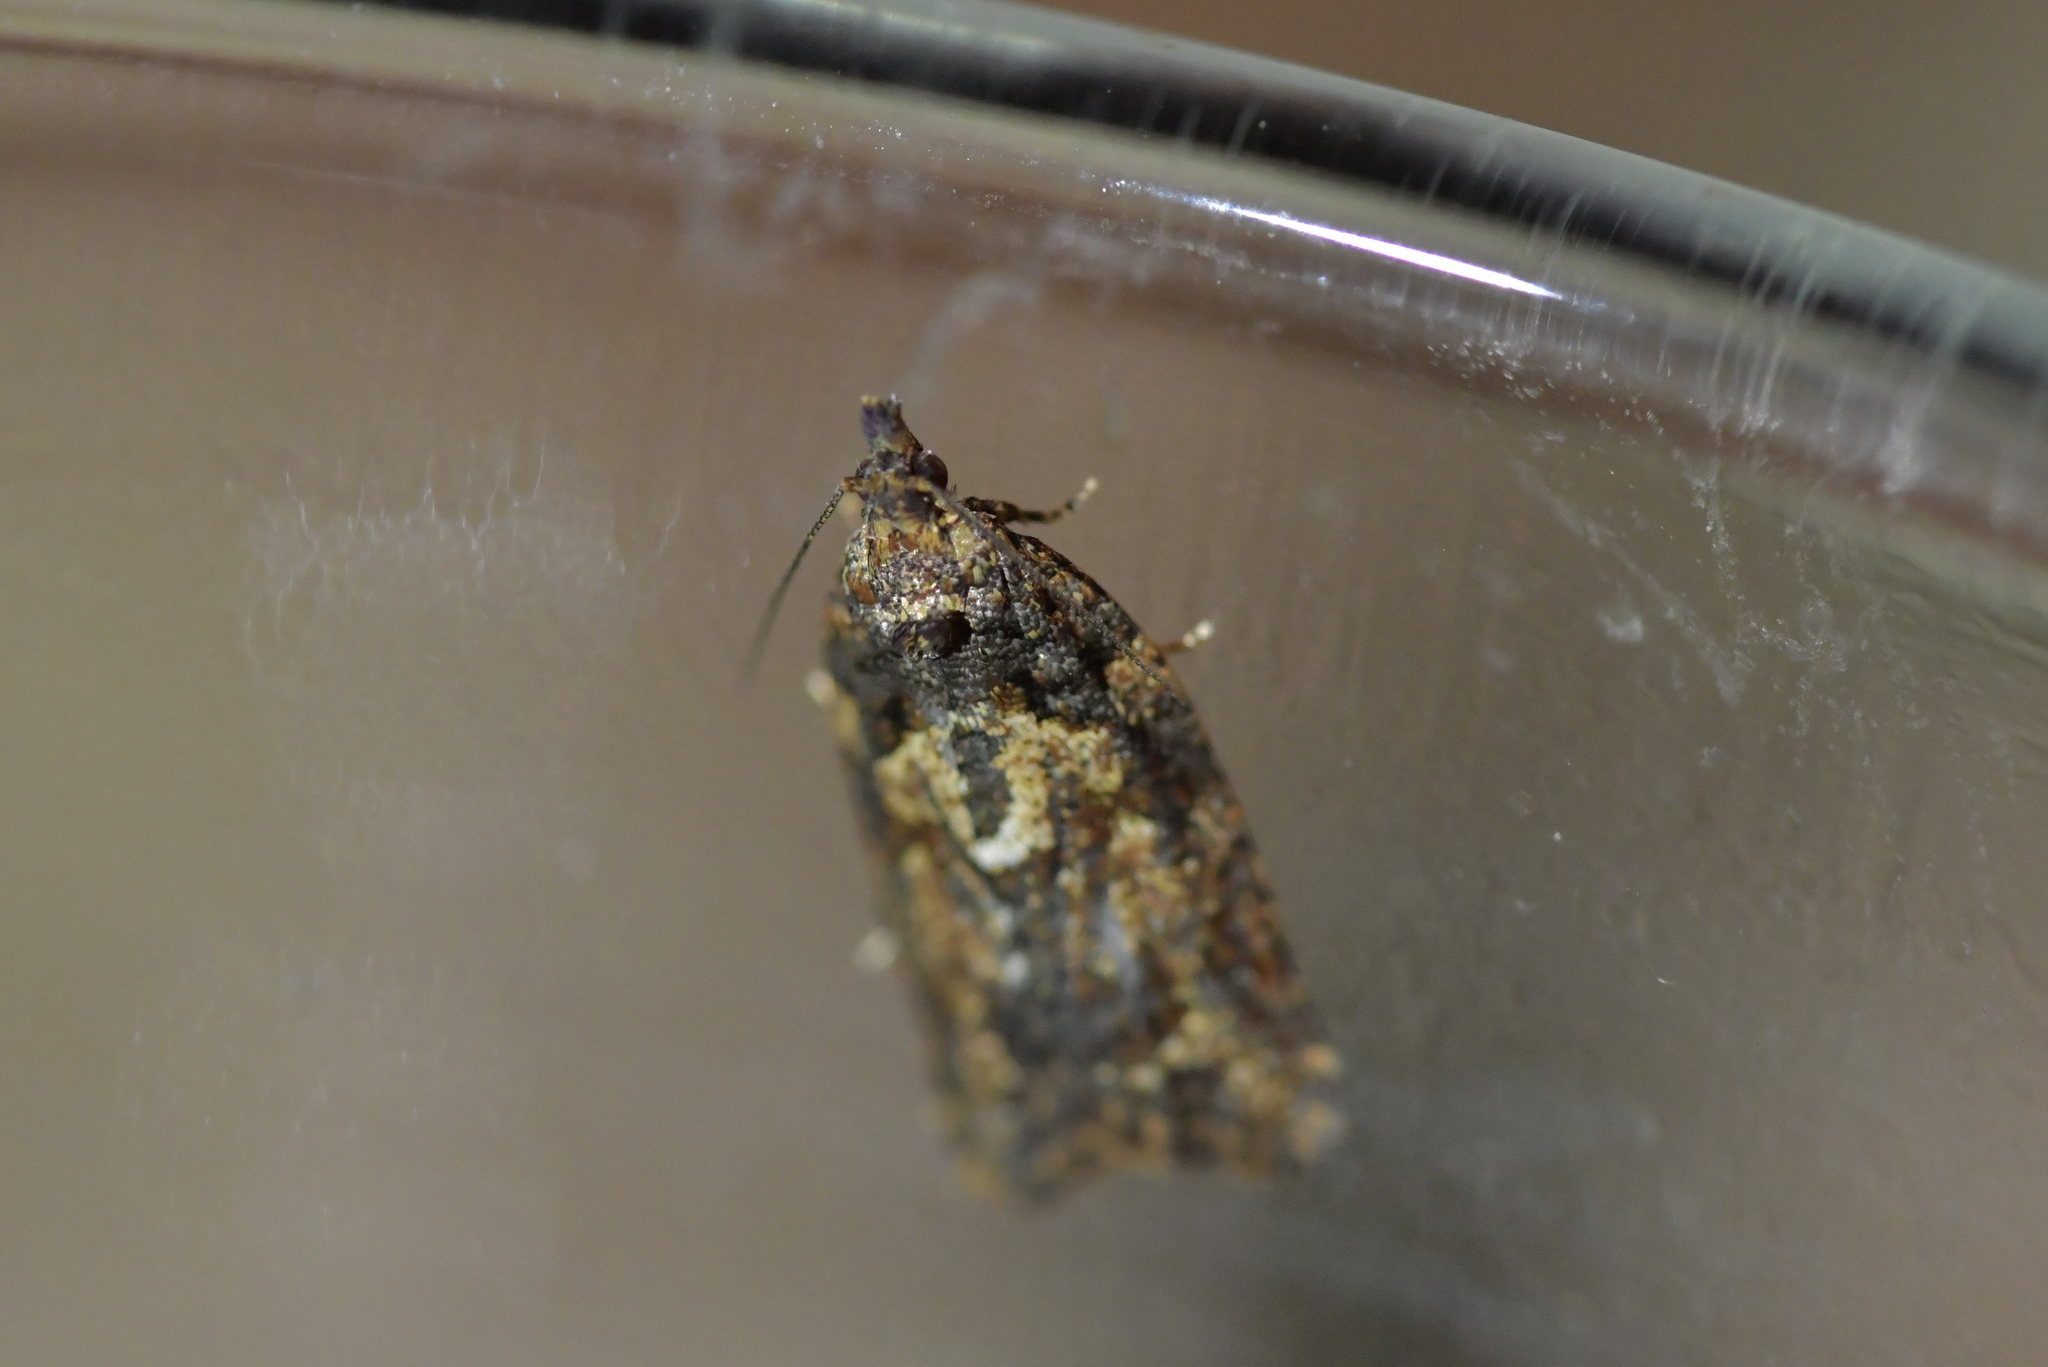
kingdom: Animalia
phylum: Arthropoda
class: Insecta
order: Lepidoptera
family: Tortricidae
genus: Capua
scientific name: Capua intractana
